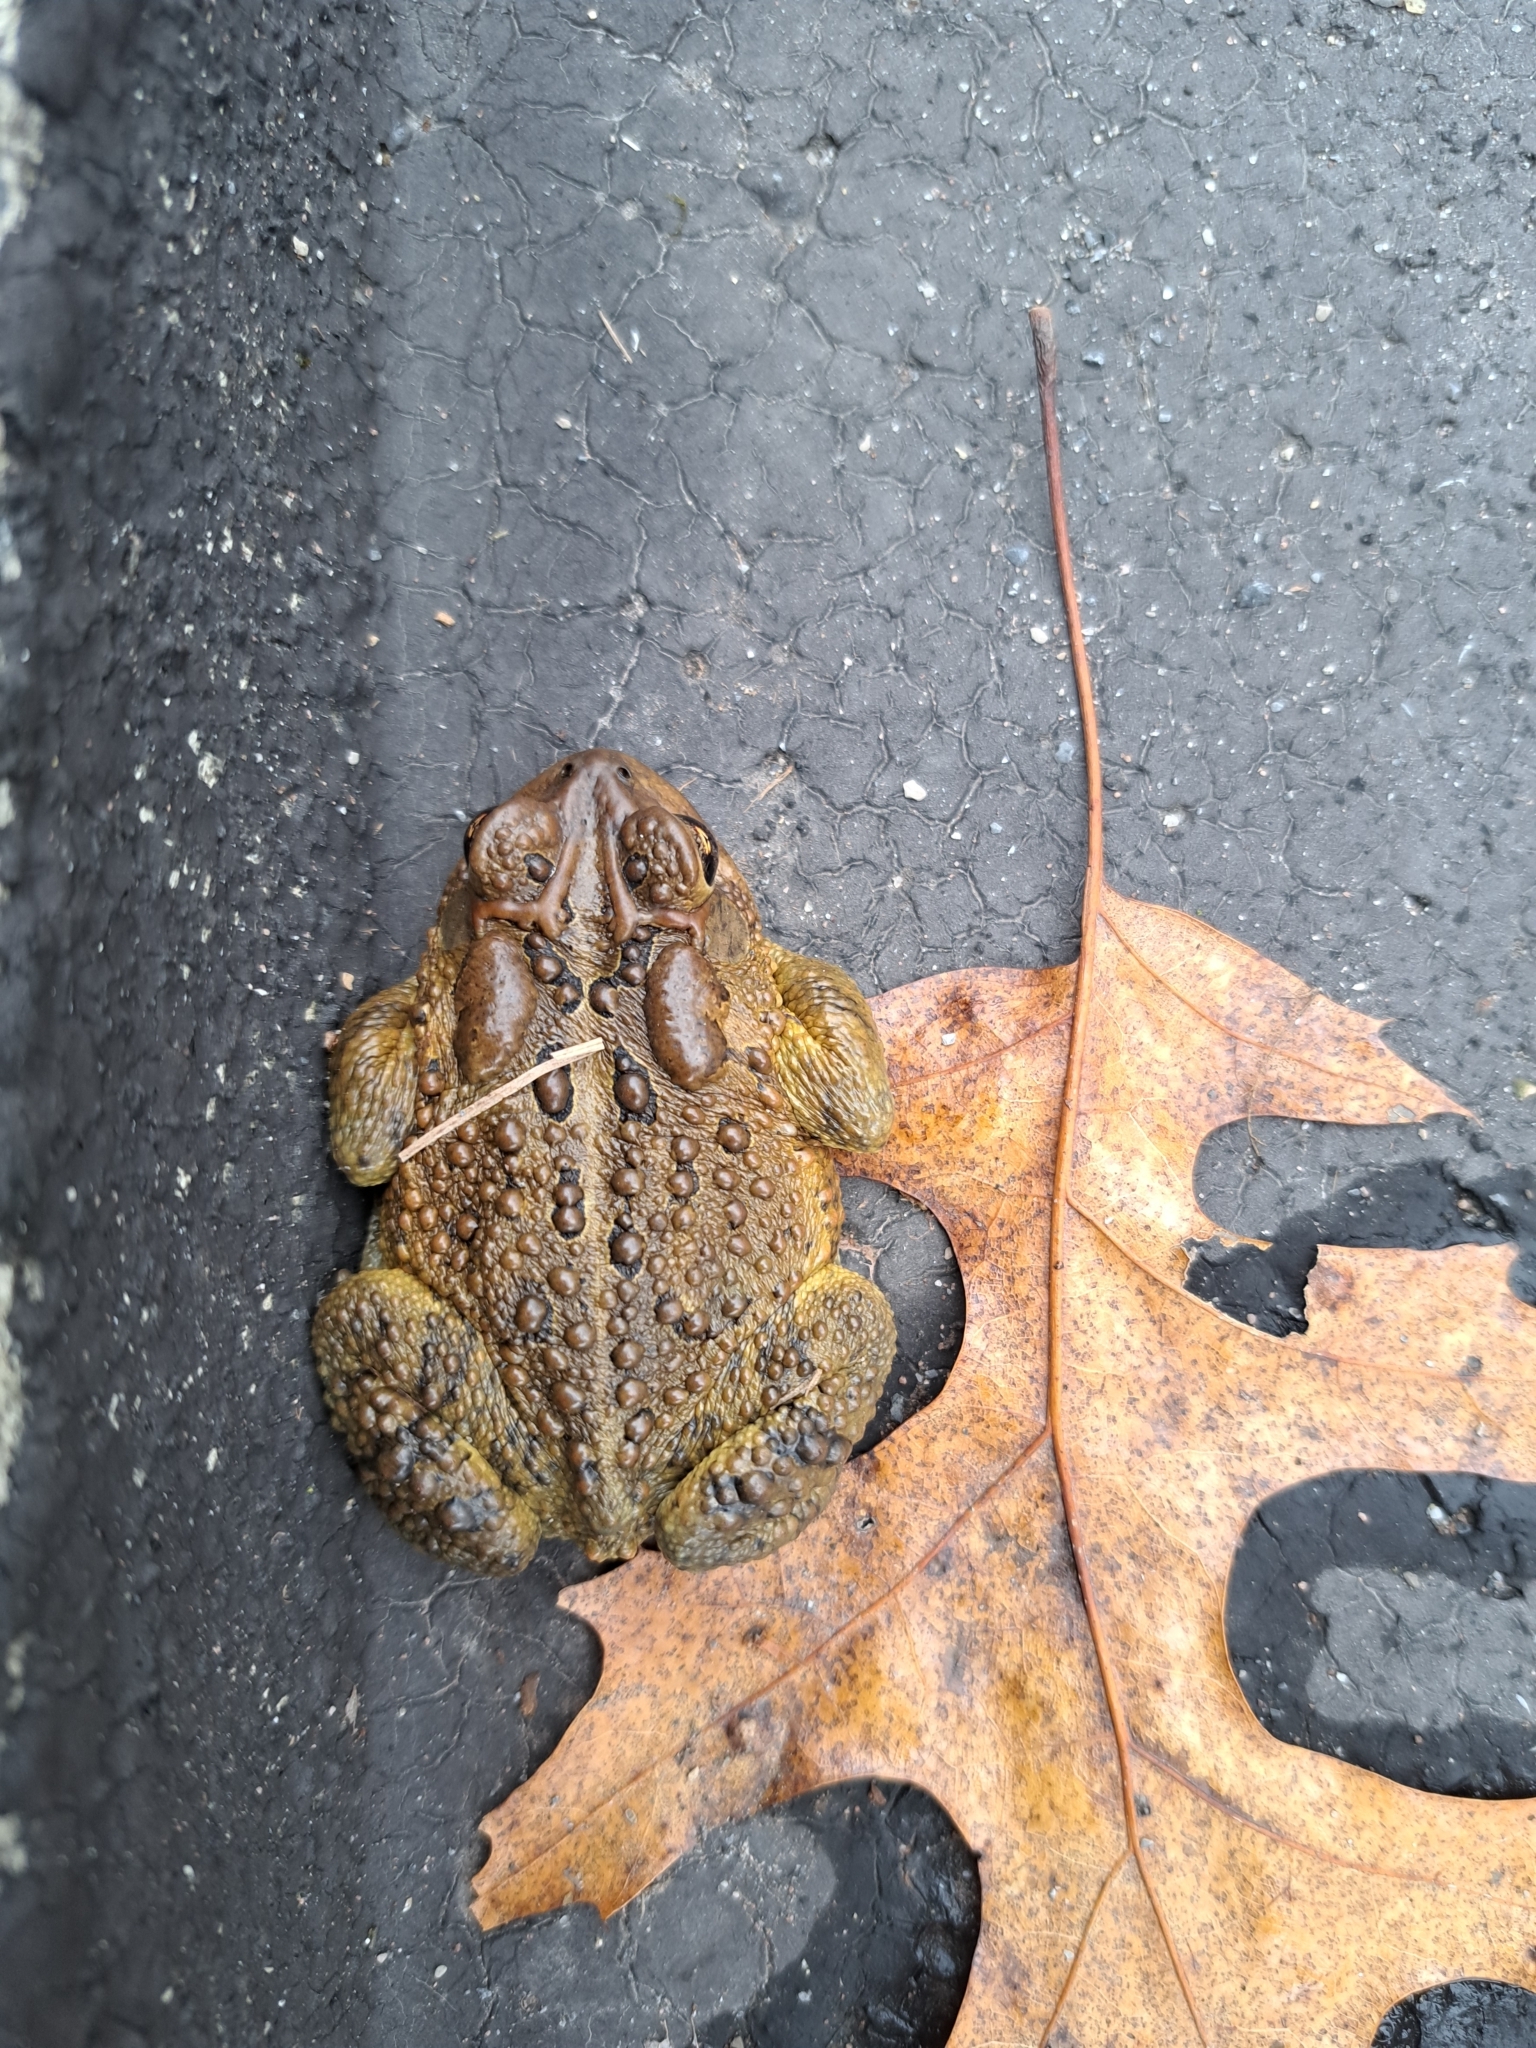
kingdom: Animalia
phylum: Chordata
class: Amphibia
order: Anura
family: Bufonidae
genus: Anaxyrus
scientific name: Anaxyrus americanus
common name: American toad
